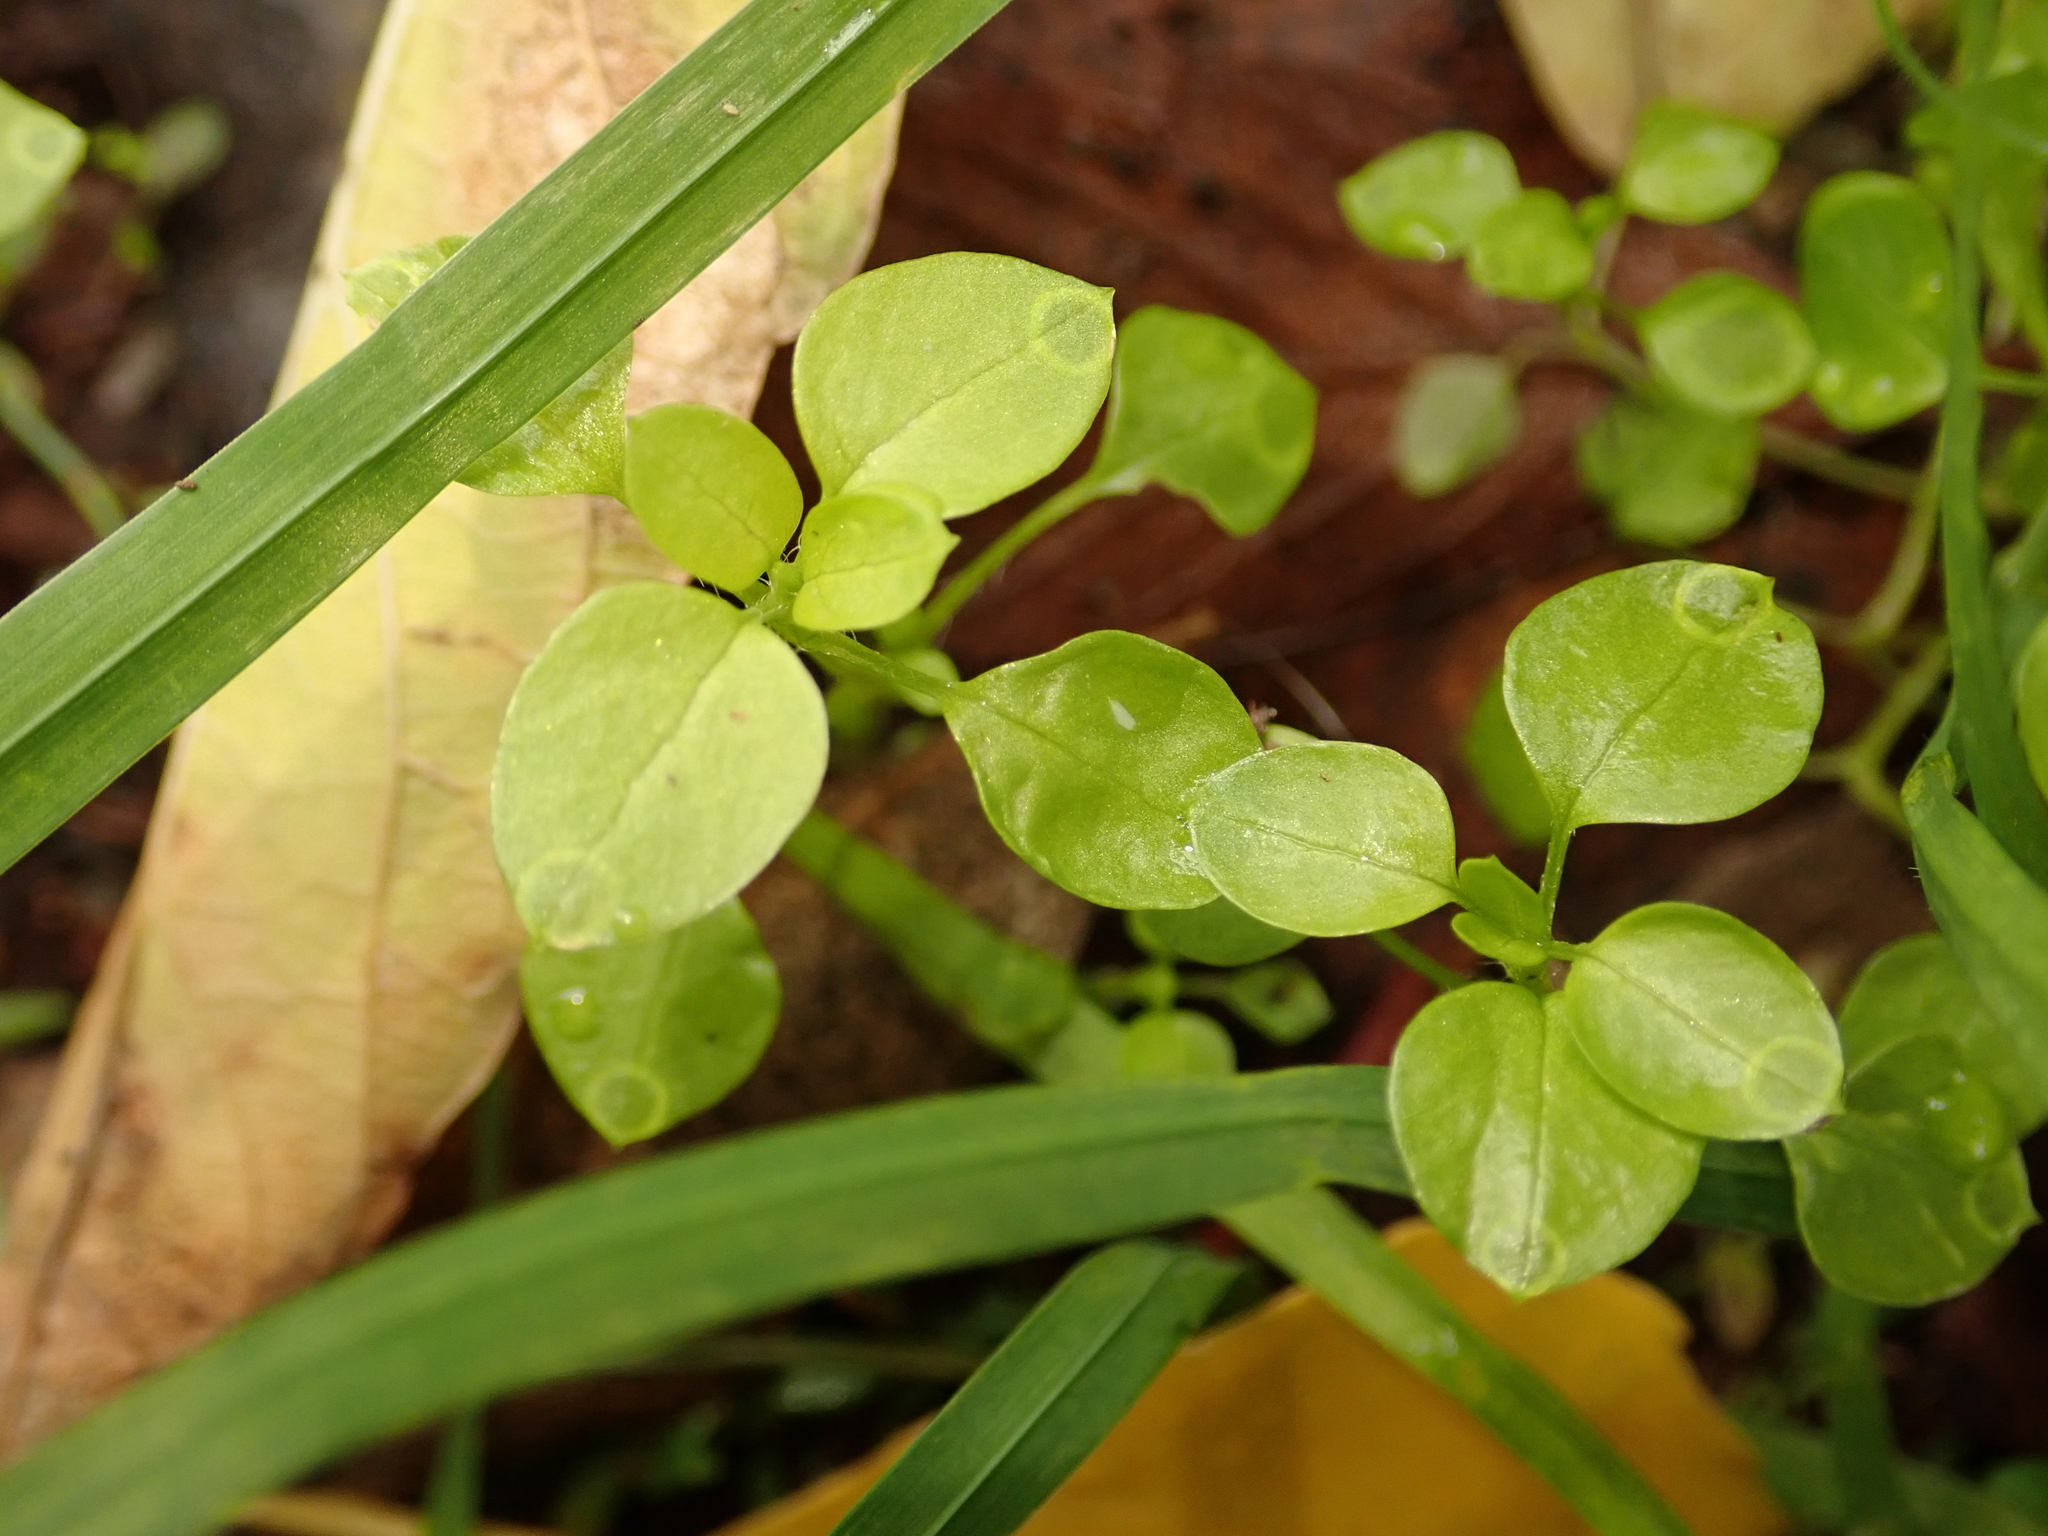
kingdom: Plantae
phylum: Tracheophyta
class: Magnoliopsida
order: Caryophyllales
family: Caryophyllaceae
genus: Stellaria
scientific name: Stellaria media
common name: Common chickweed
